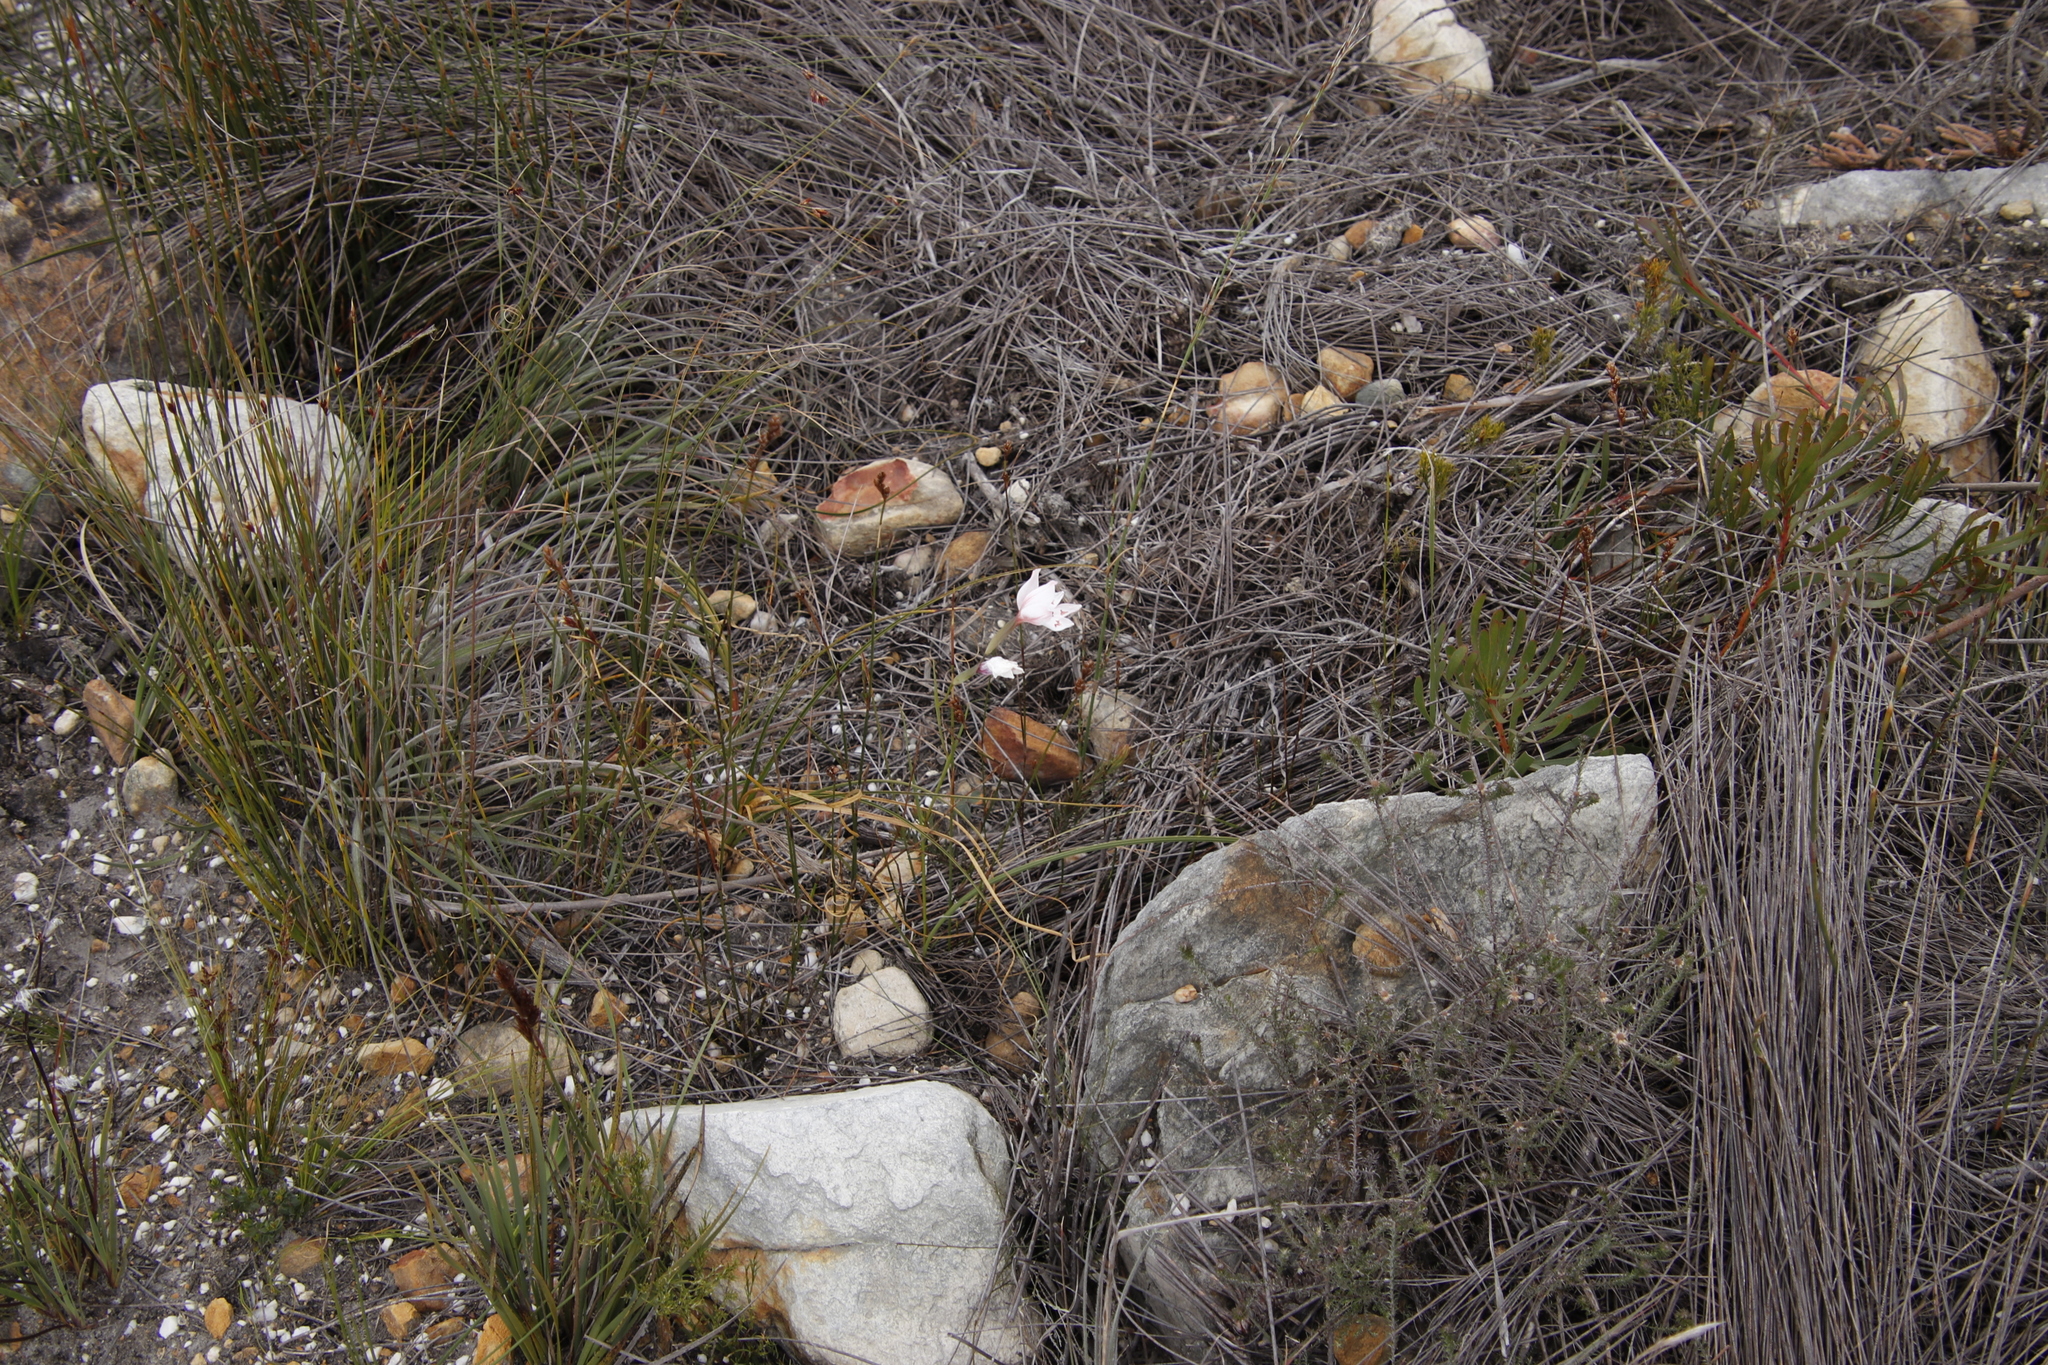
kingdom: Plantae
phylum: Tracheophyta
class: Liliopsida
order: Asparagales
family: Iridaceae
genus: Gladiolus
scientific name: Gladiolus debilis
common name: Painted-lady
